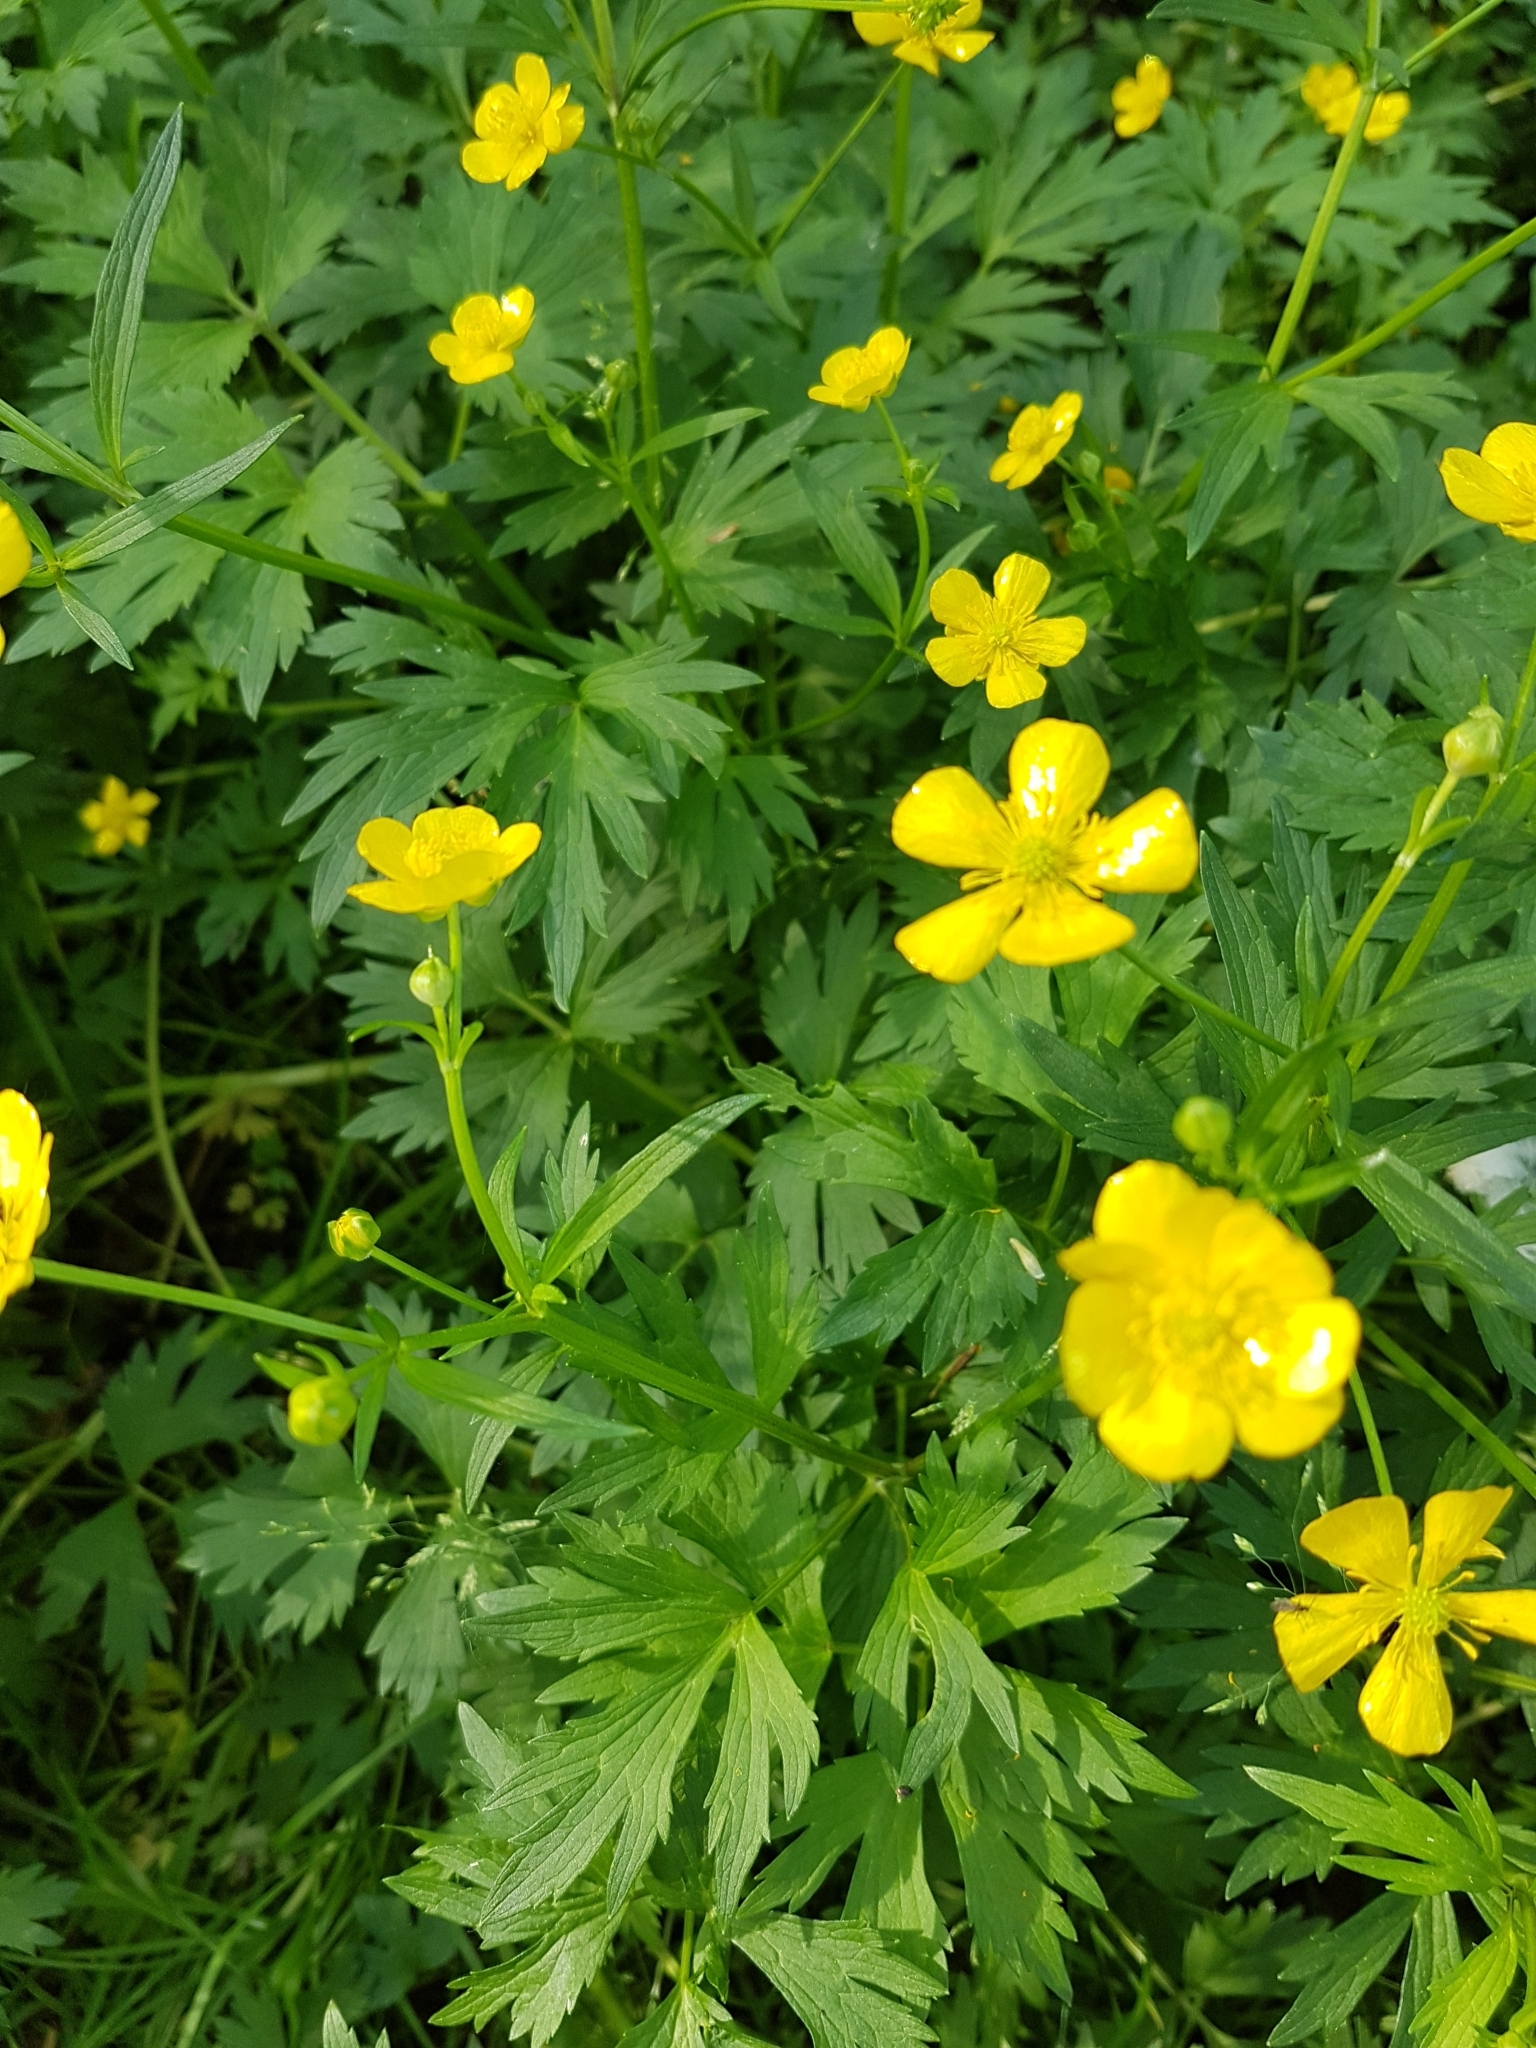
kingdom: Plantae
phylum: Tracheophyta
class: Magnoliopsida
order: Ranunculales
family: Ranunculaceae
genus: Ranunculus
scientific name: Ranunculus repens
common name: Creeping buttercup
